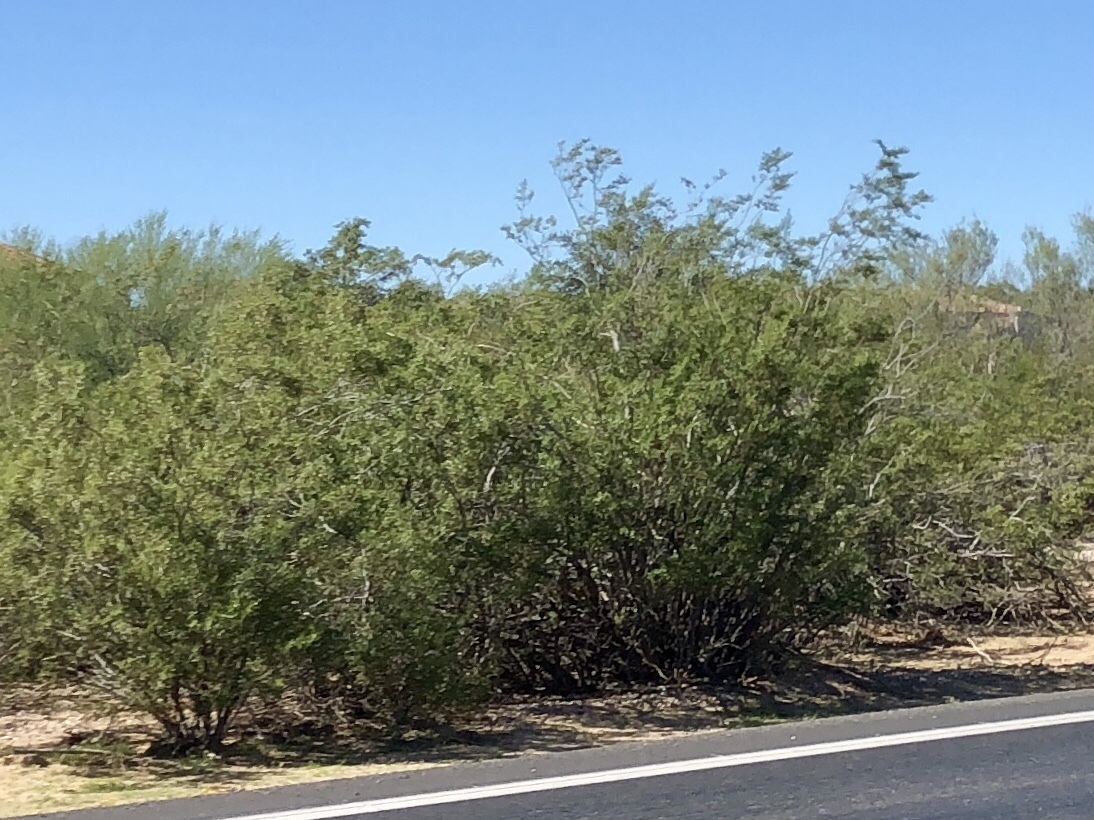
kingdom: Plantae
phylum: Tracheophyta
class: Magnoliopsida
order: Zygophyllales
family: Zygophyllaceae
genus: Larrea
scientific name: Larrea tridentata
